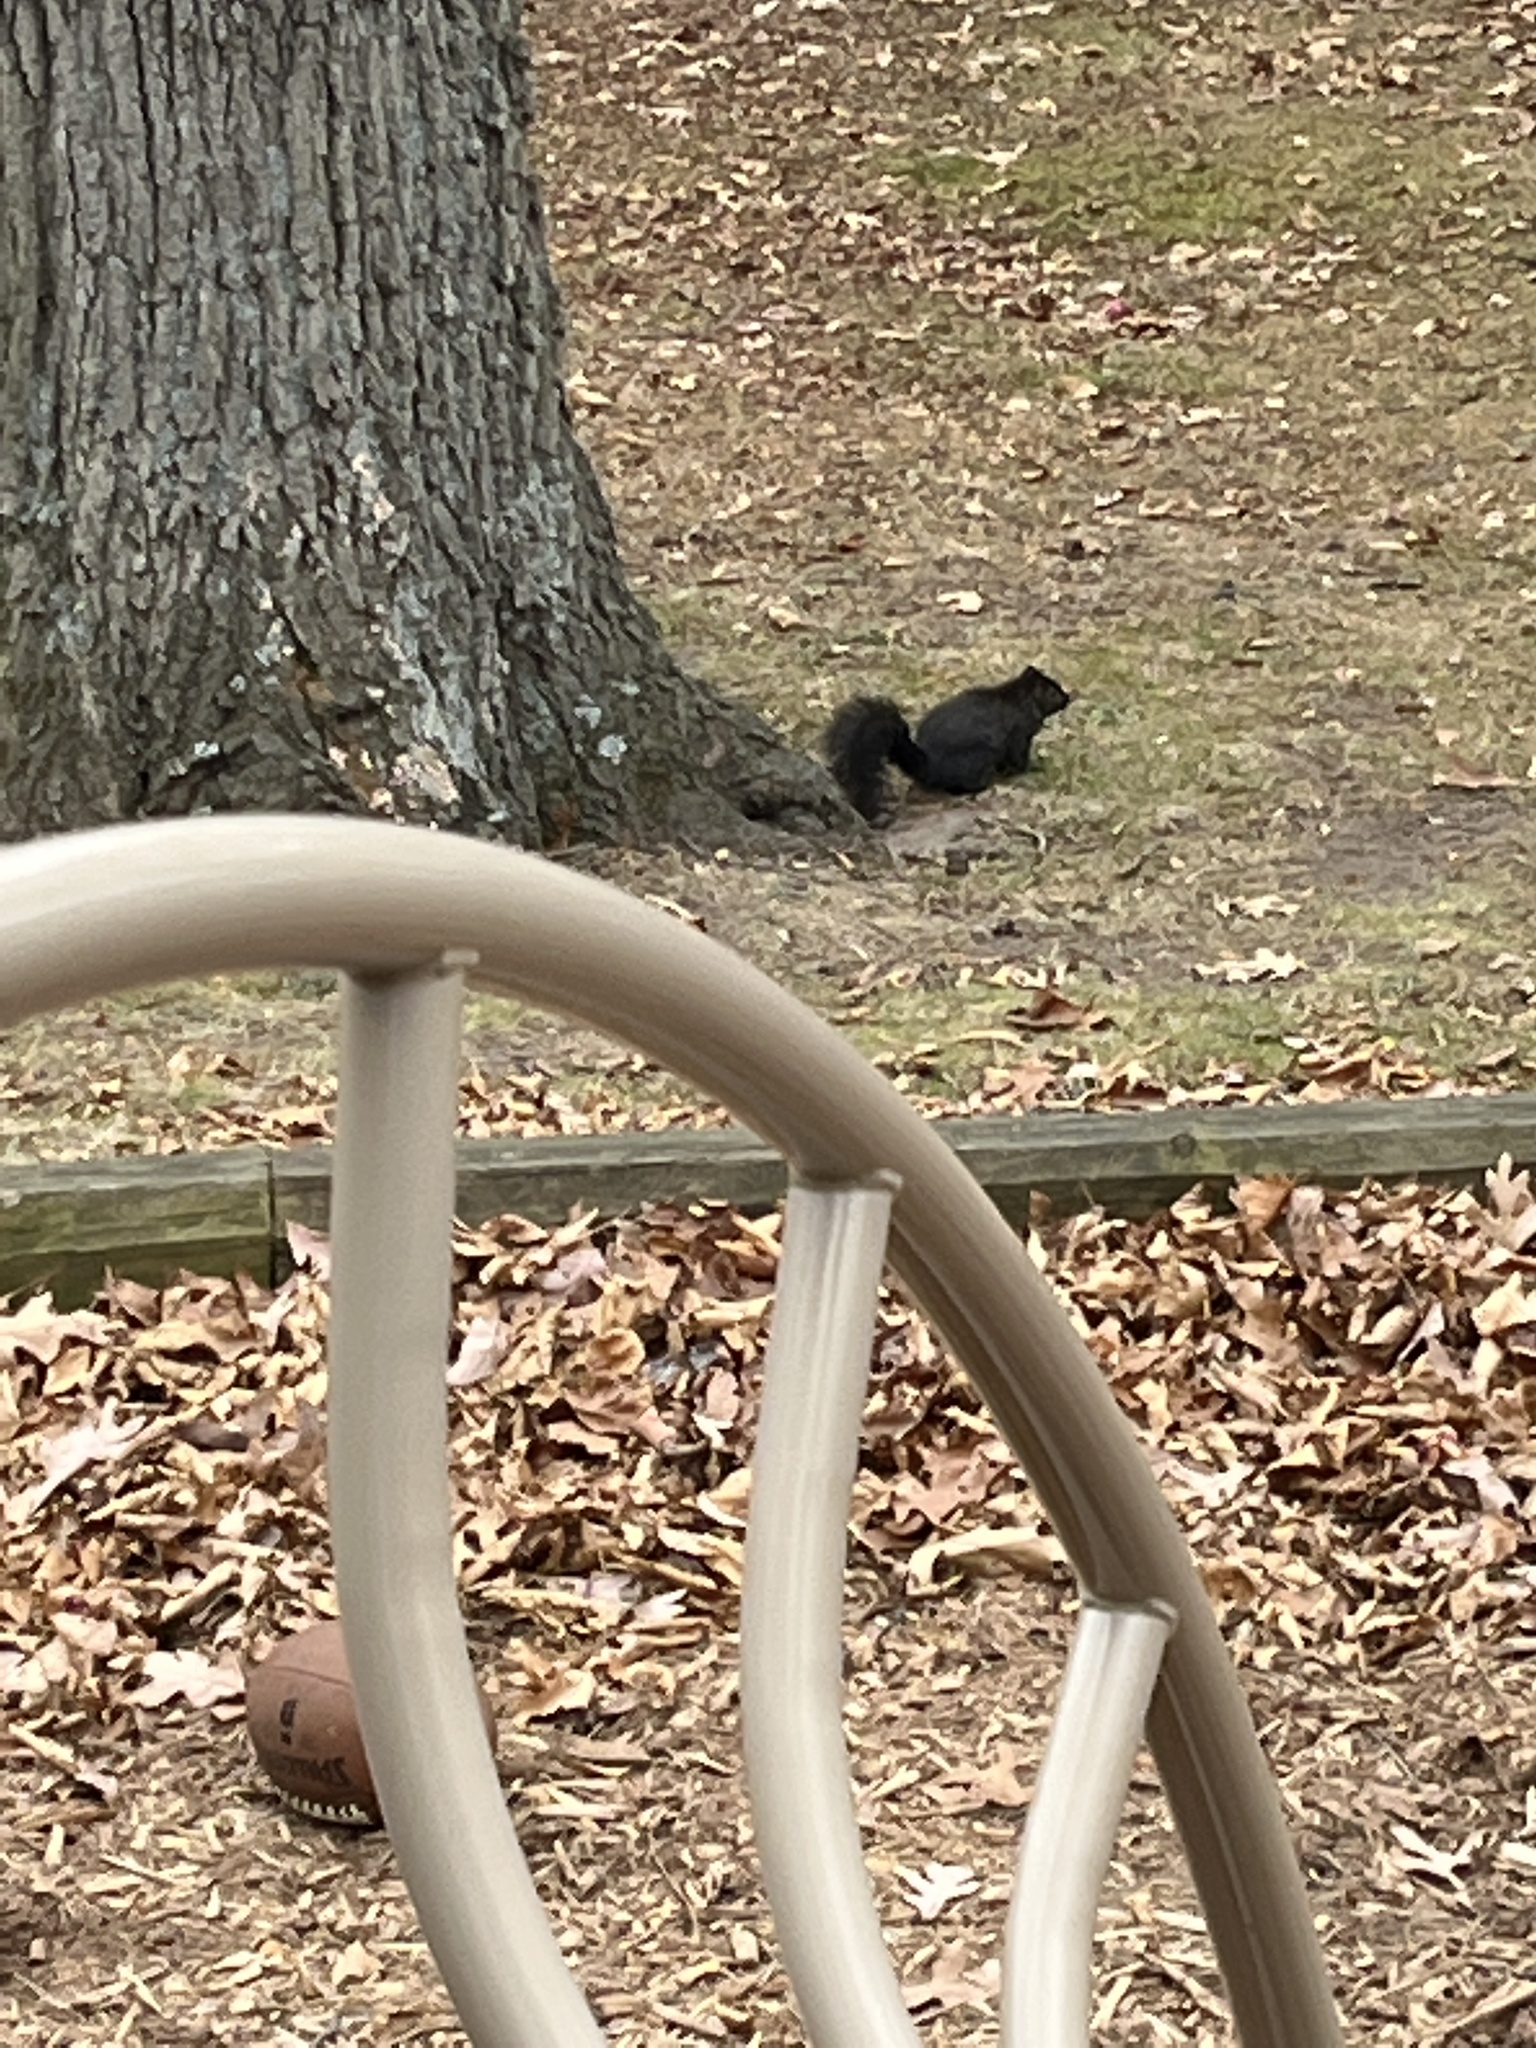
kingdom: Animalia
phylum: Chordata
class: Mammalia
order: Rodentia
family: Sciuridae
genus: Sciurus
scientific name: Sciurus carolinensis
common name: Eastern gray squirrel
